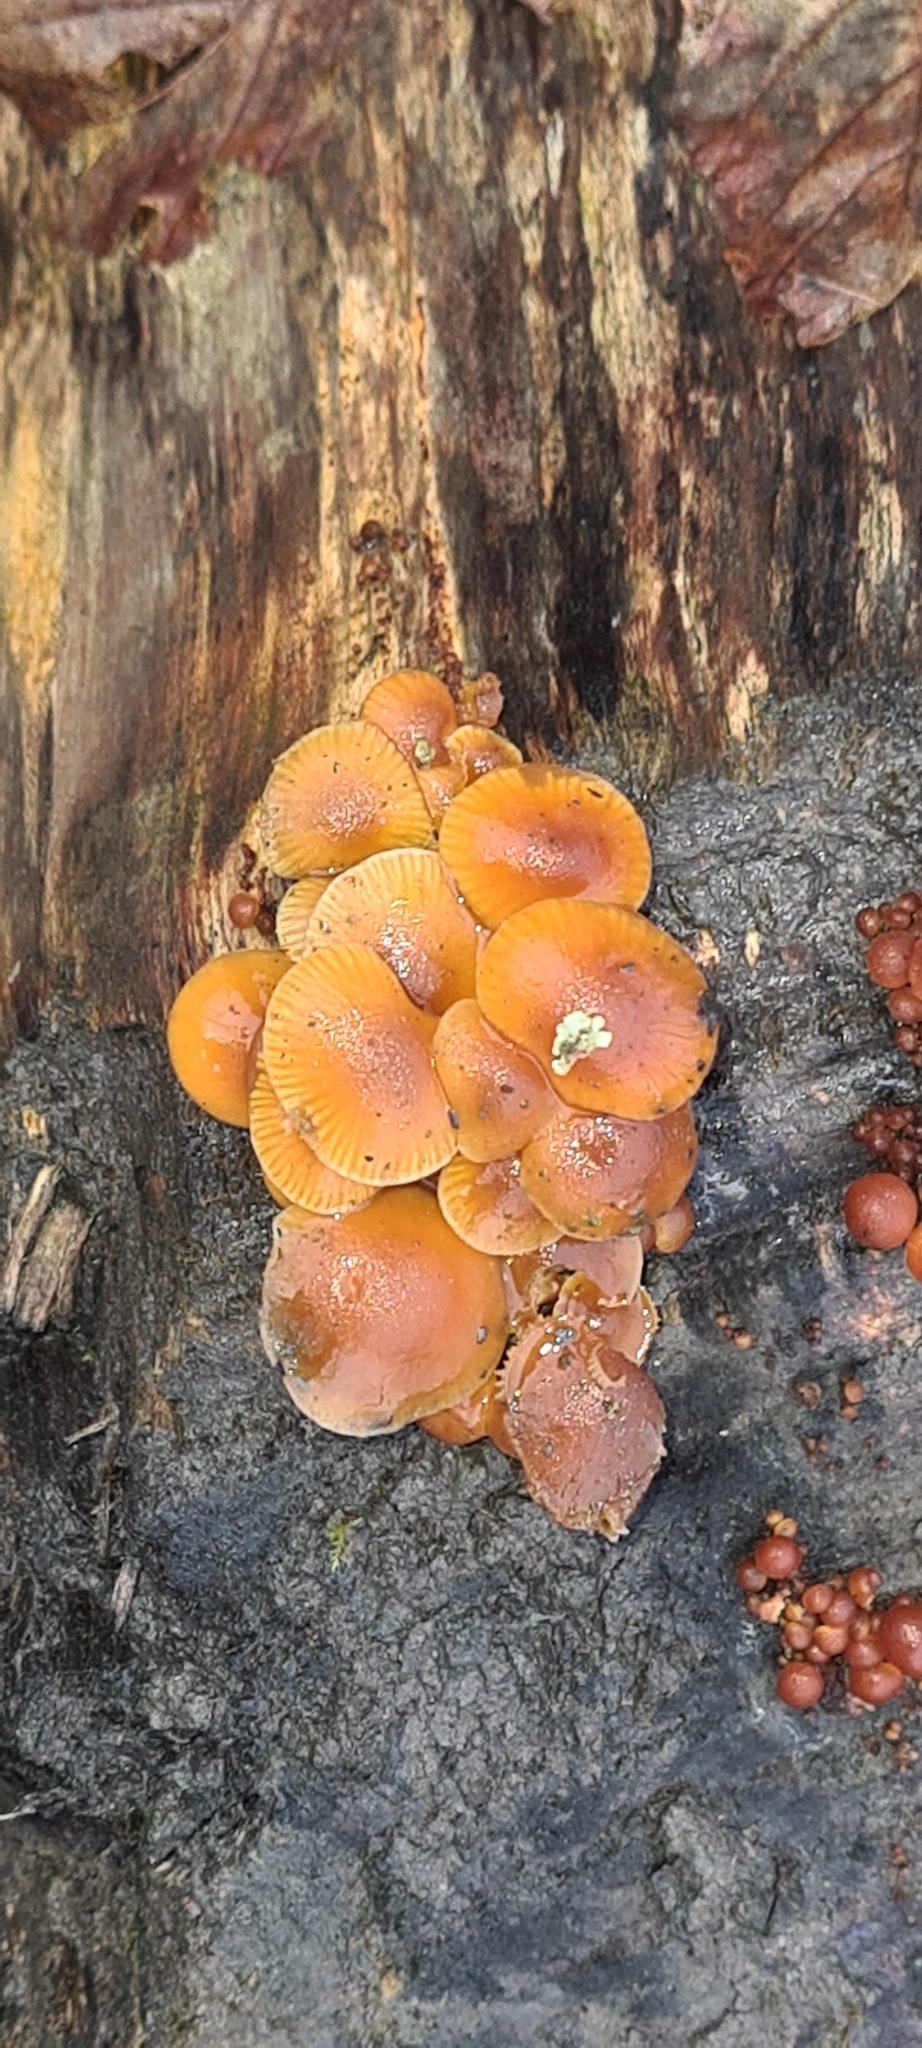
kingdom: Fungi
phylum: Basidiomycota
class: Agaricomycetes
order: Agaricales
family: Physalacriaceae
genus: Flammulina
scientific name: Flammulina
